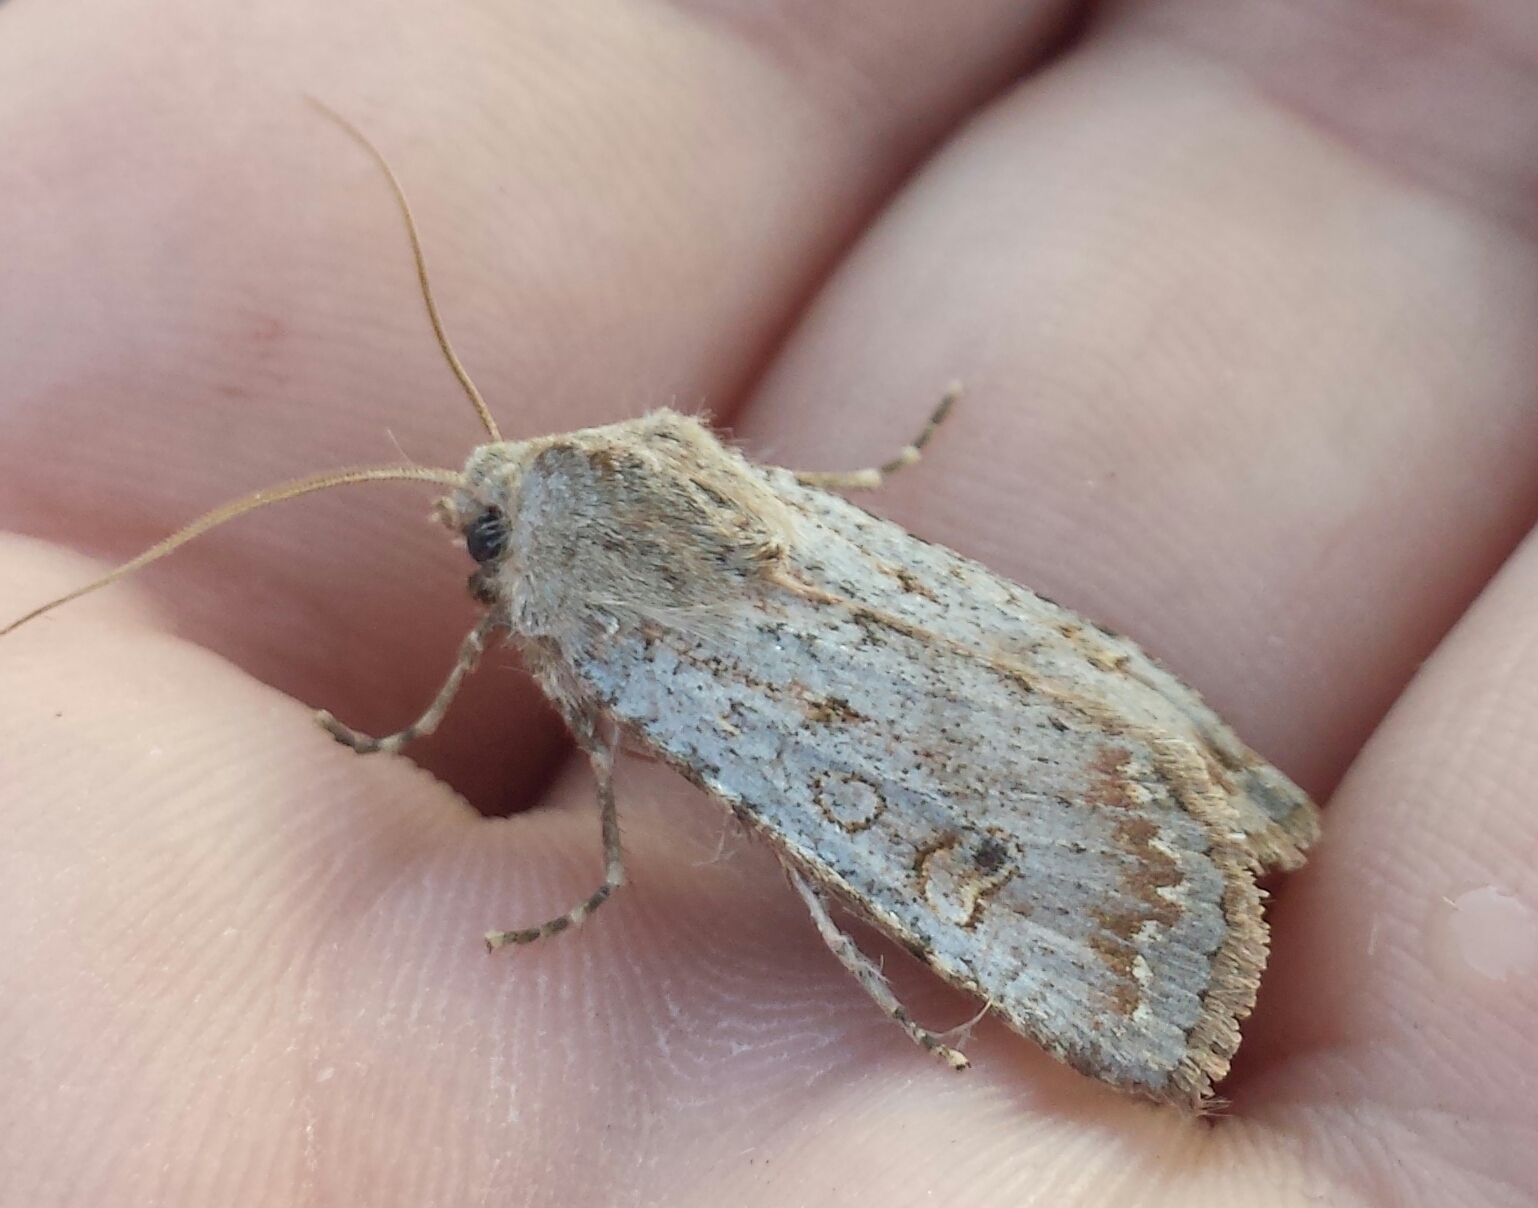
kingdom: Animalia
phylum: Arthropoda
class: Insecta
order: Lepidoptera
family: Noctuidae
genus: Orthosia
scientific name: Orthosia revicta
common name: Rusty whitesided caterpillar
